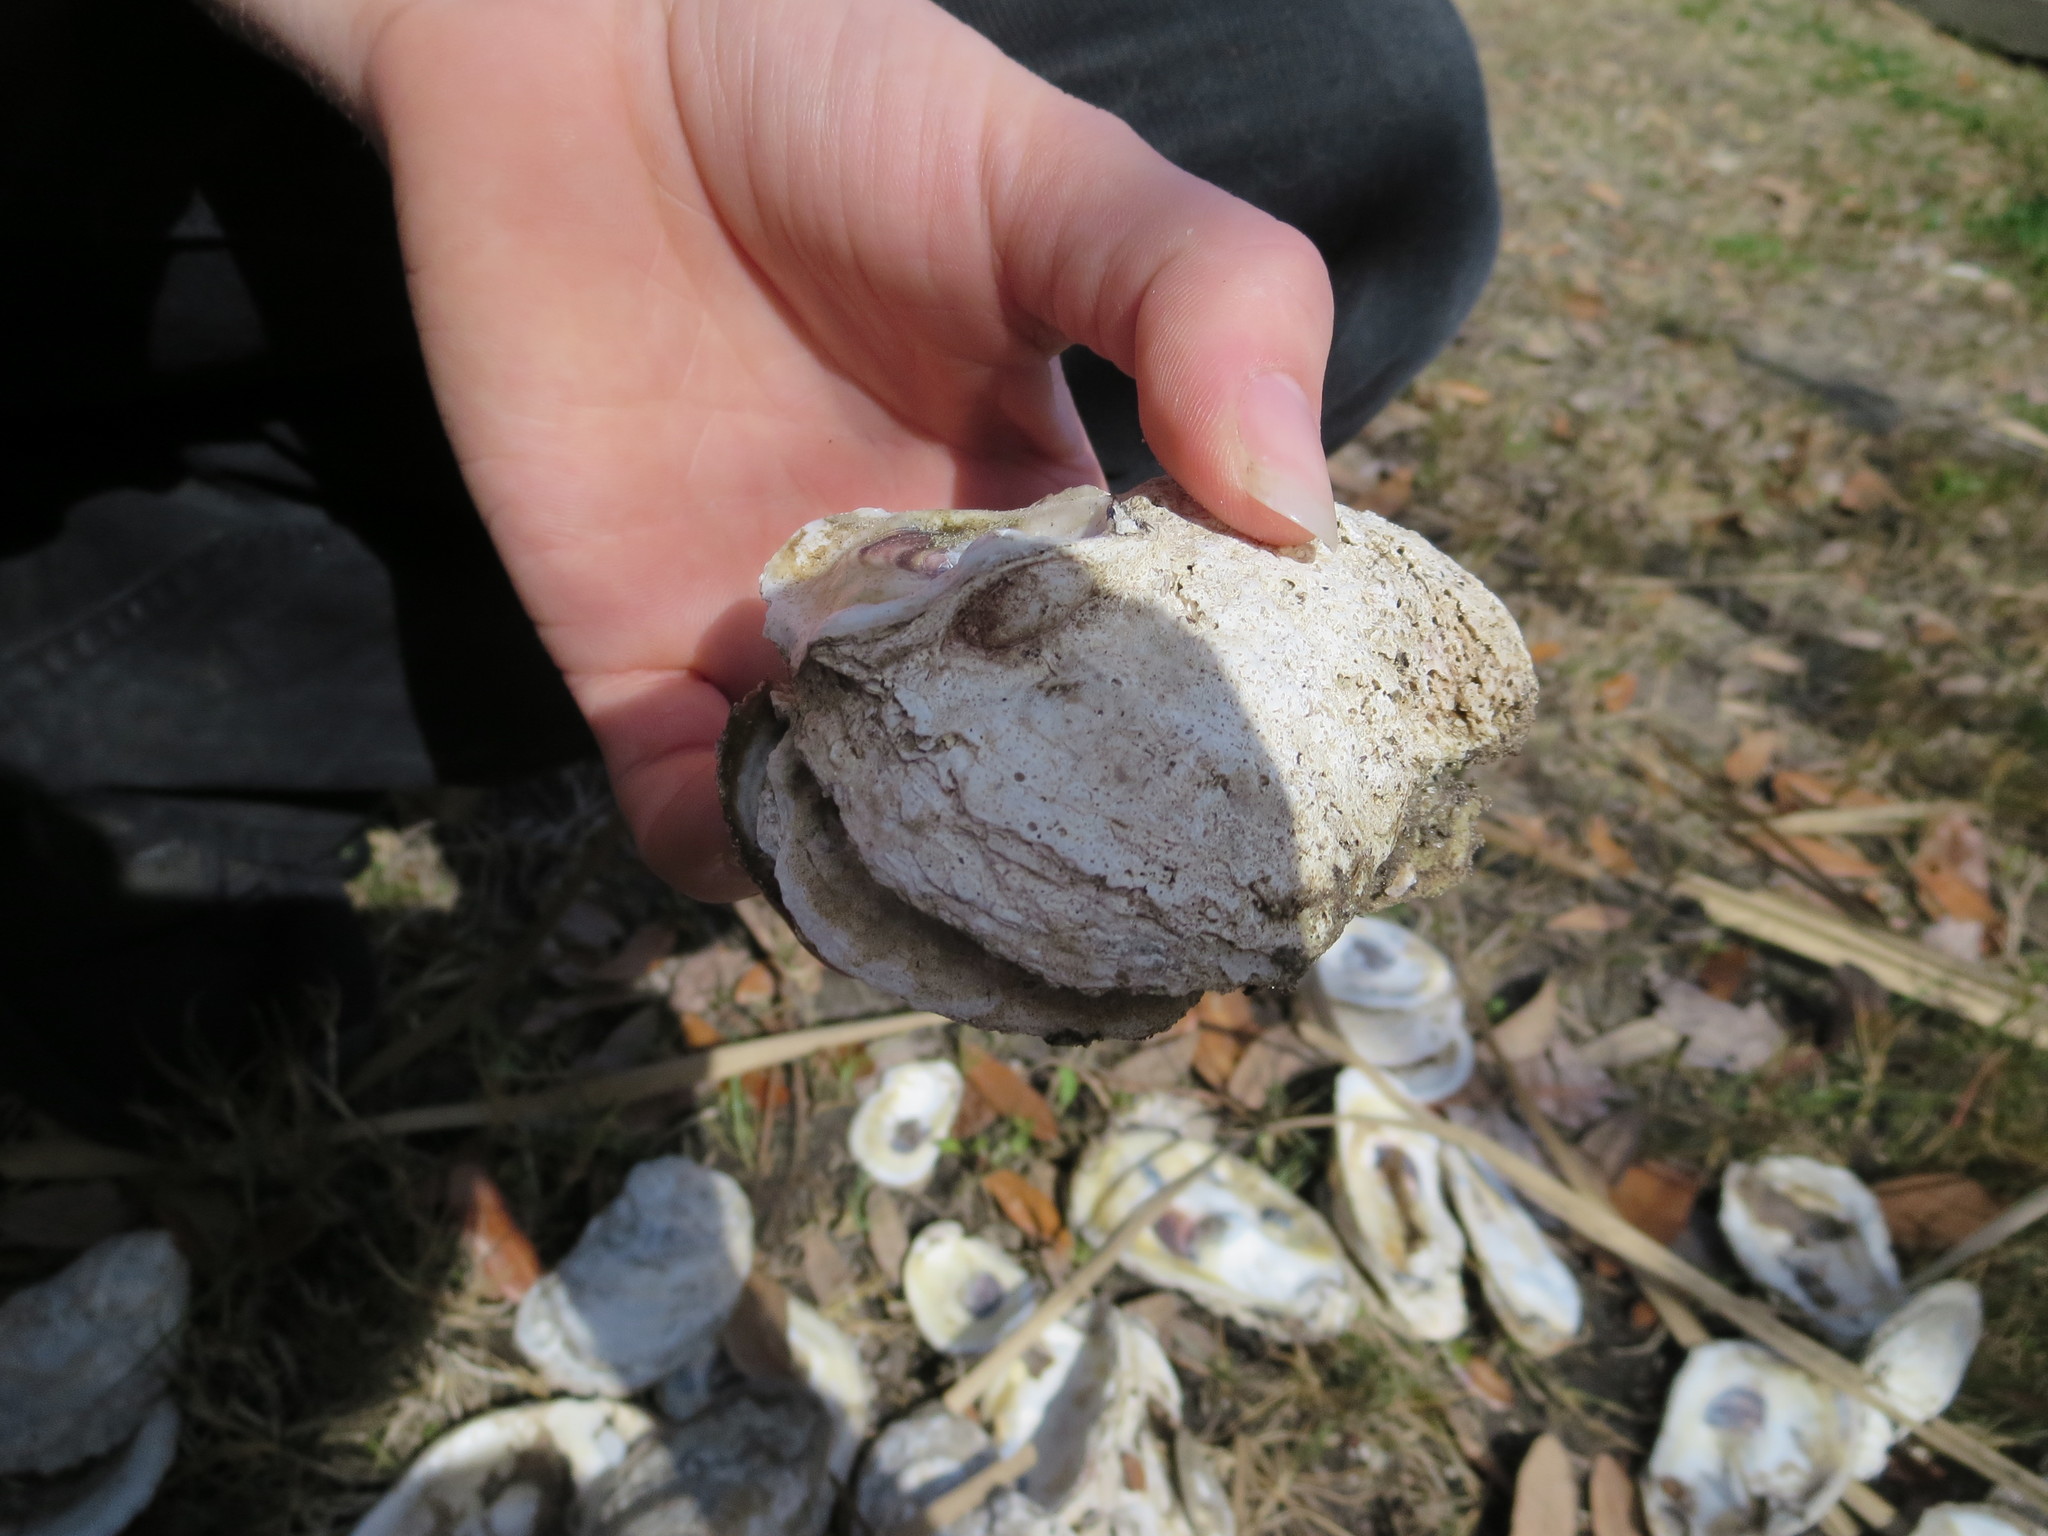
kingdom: Animalia
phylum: Mollusca
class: Bivalvia
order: Ostreida
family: Ostreidae
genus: Crassostrea
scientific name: Crassostrea virginica
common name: American oyster
